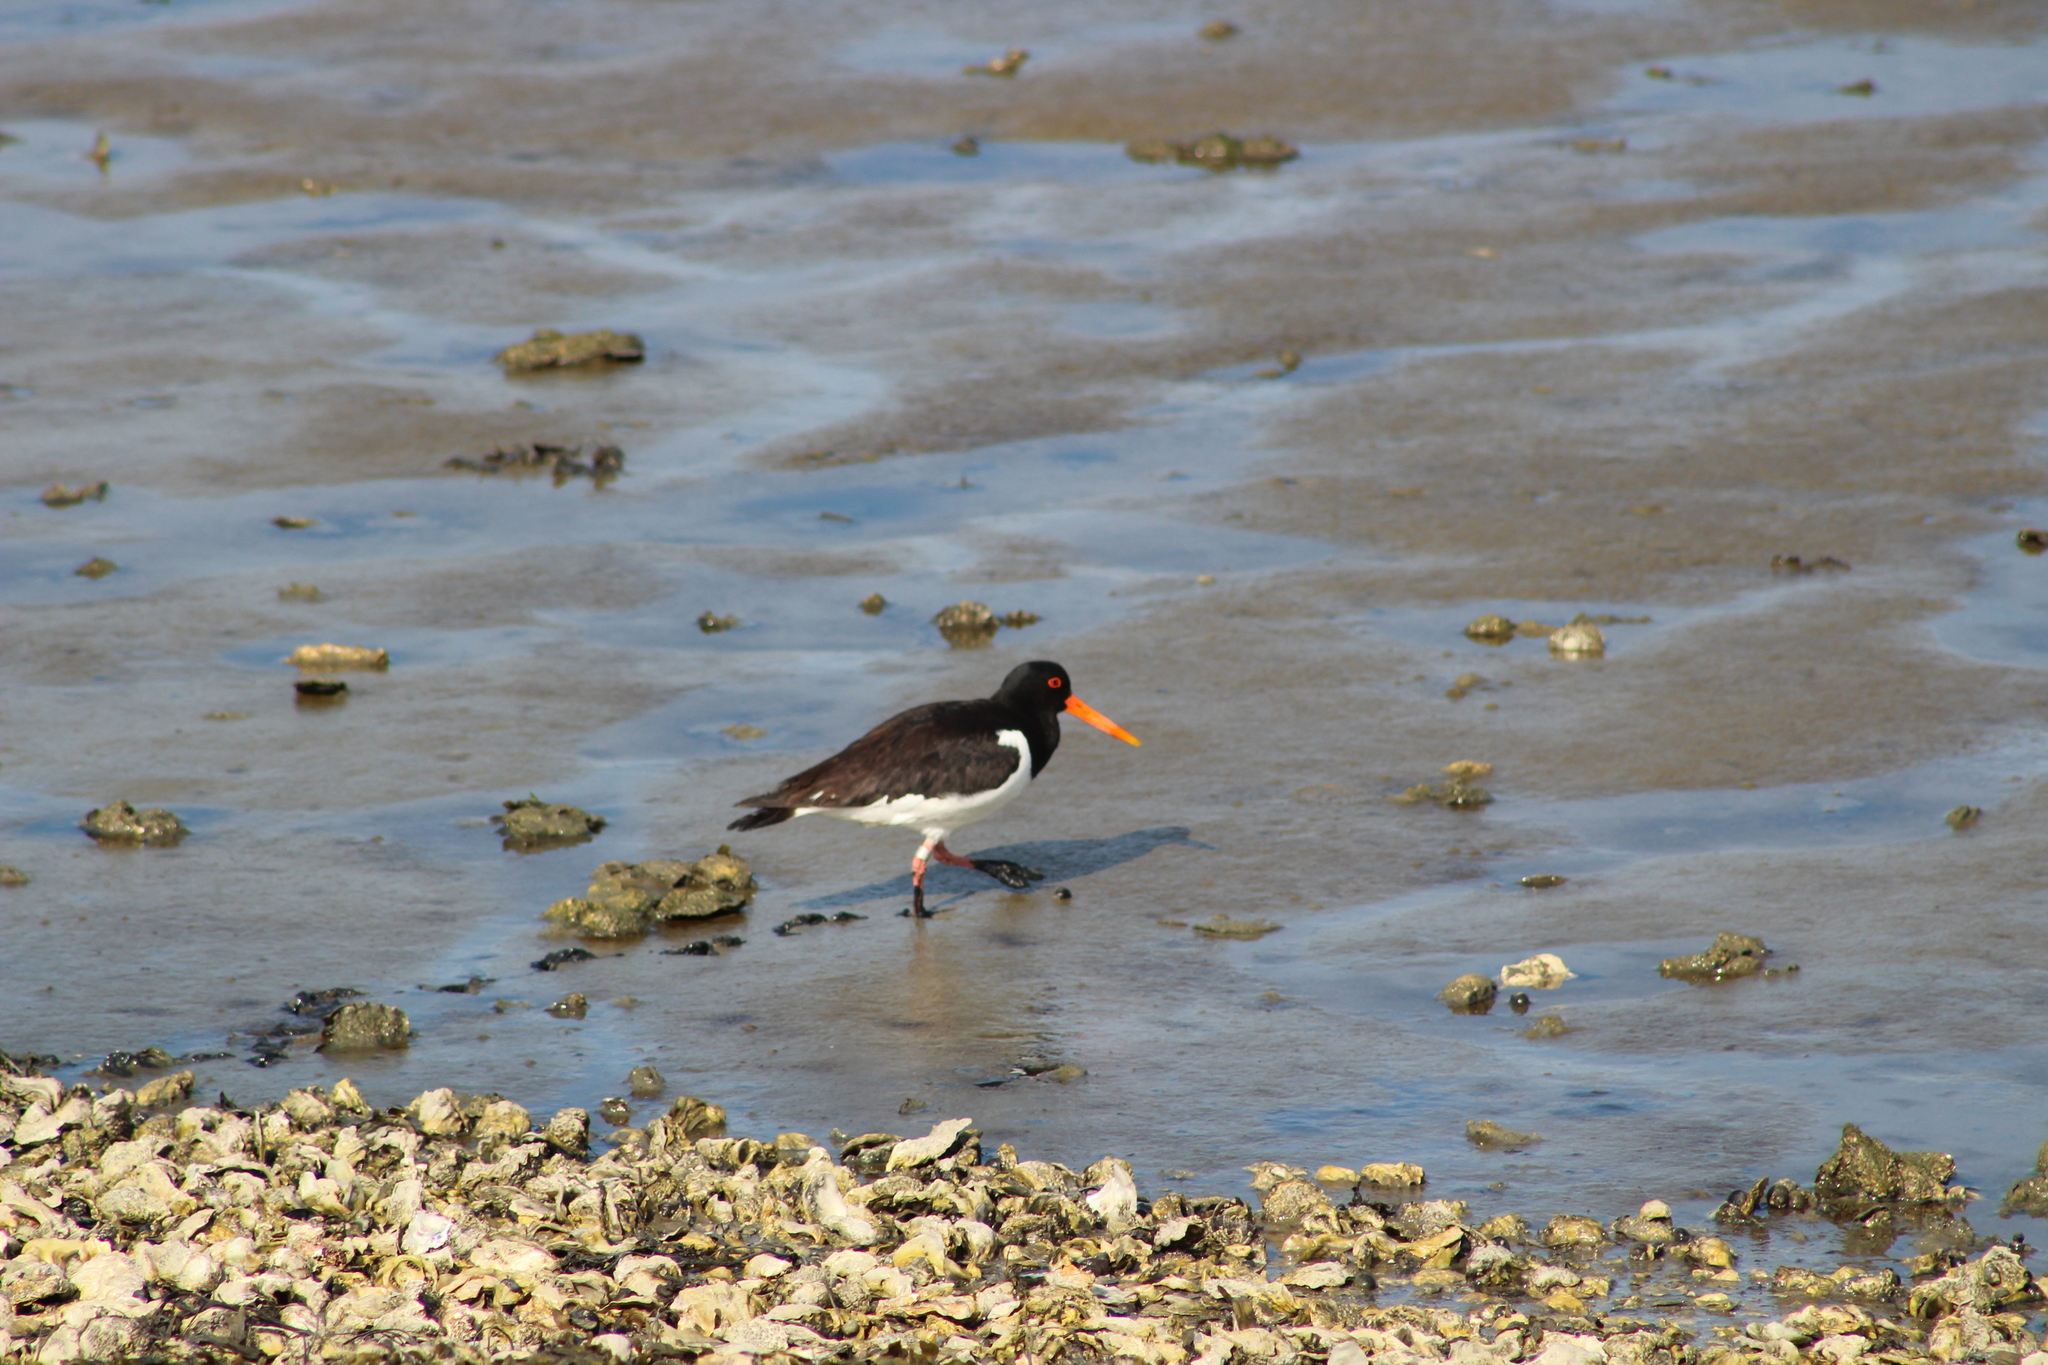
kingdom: Animalia
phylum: Chordata
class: Aves
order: Charadriiformes
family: Haematopodidae
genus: Haematopus
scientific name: Haematopus ostralegus
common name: Eurasian oystercatcher
